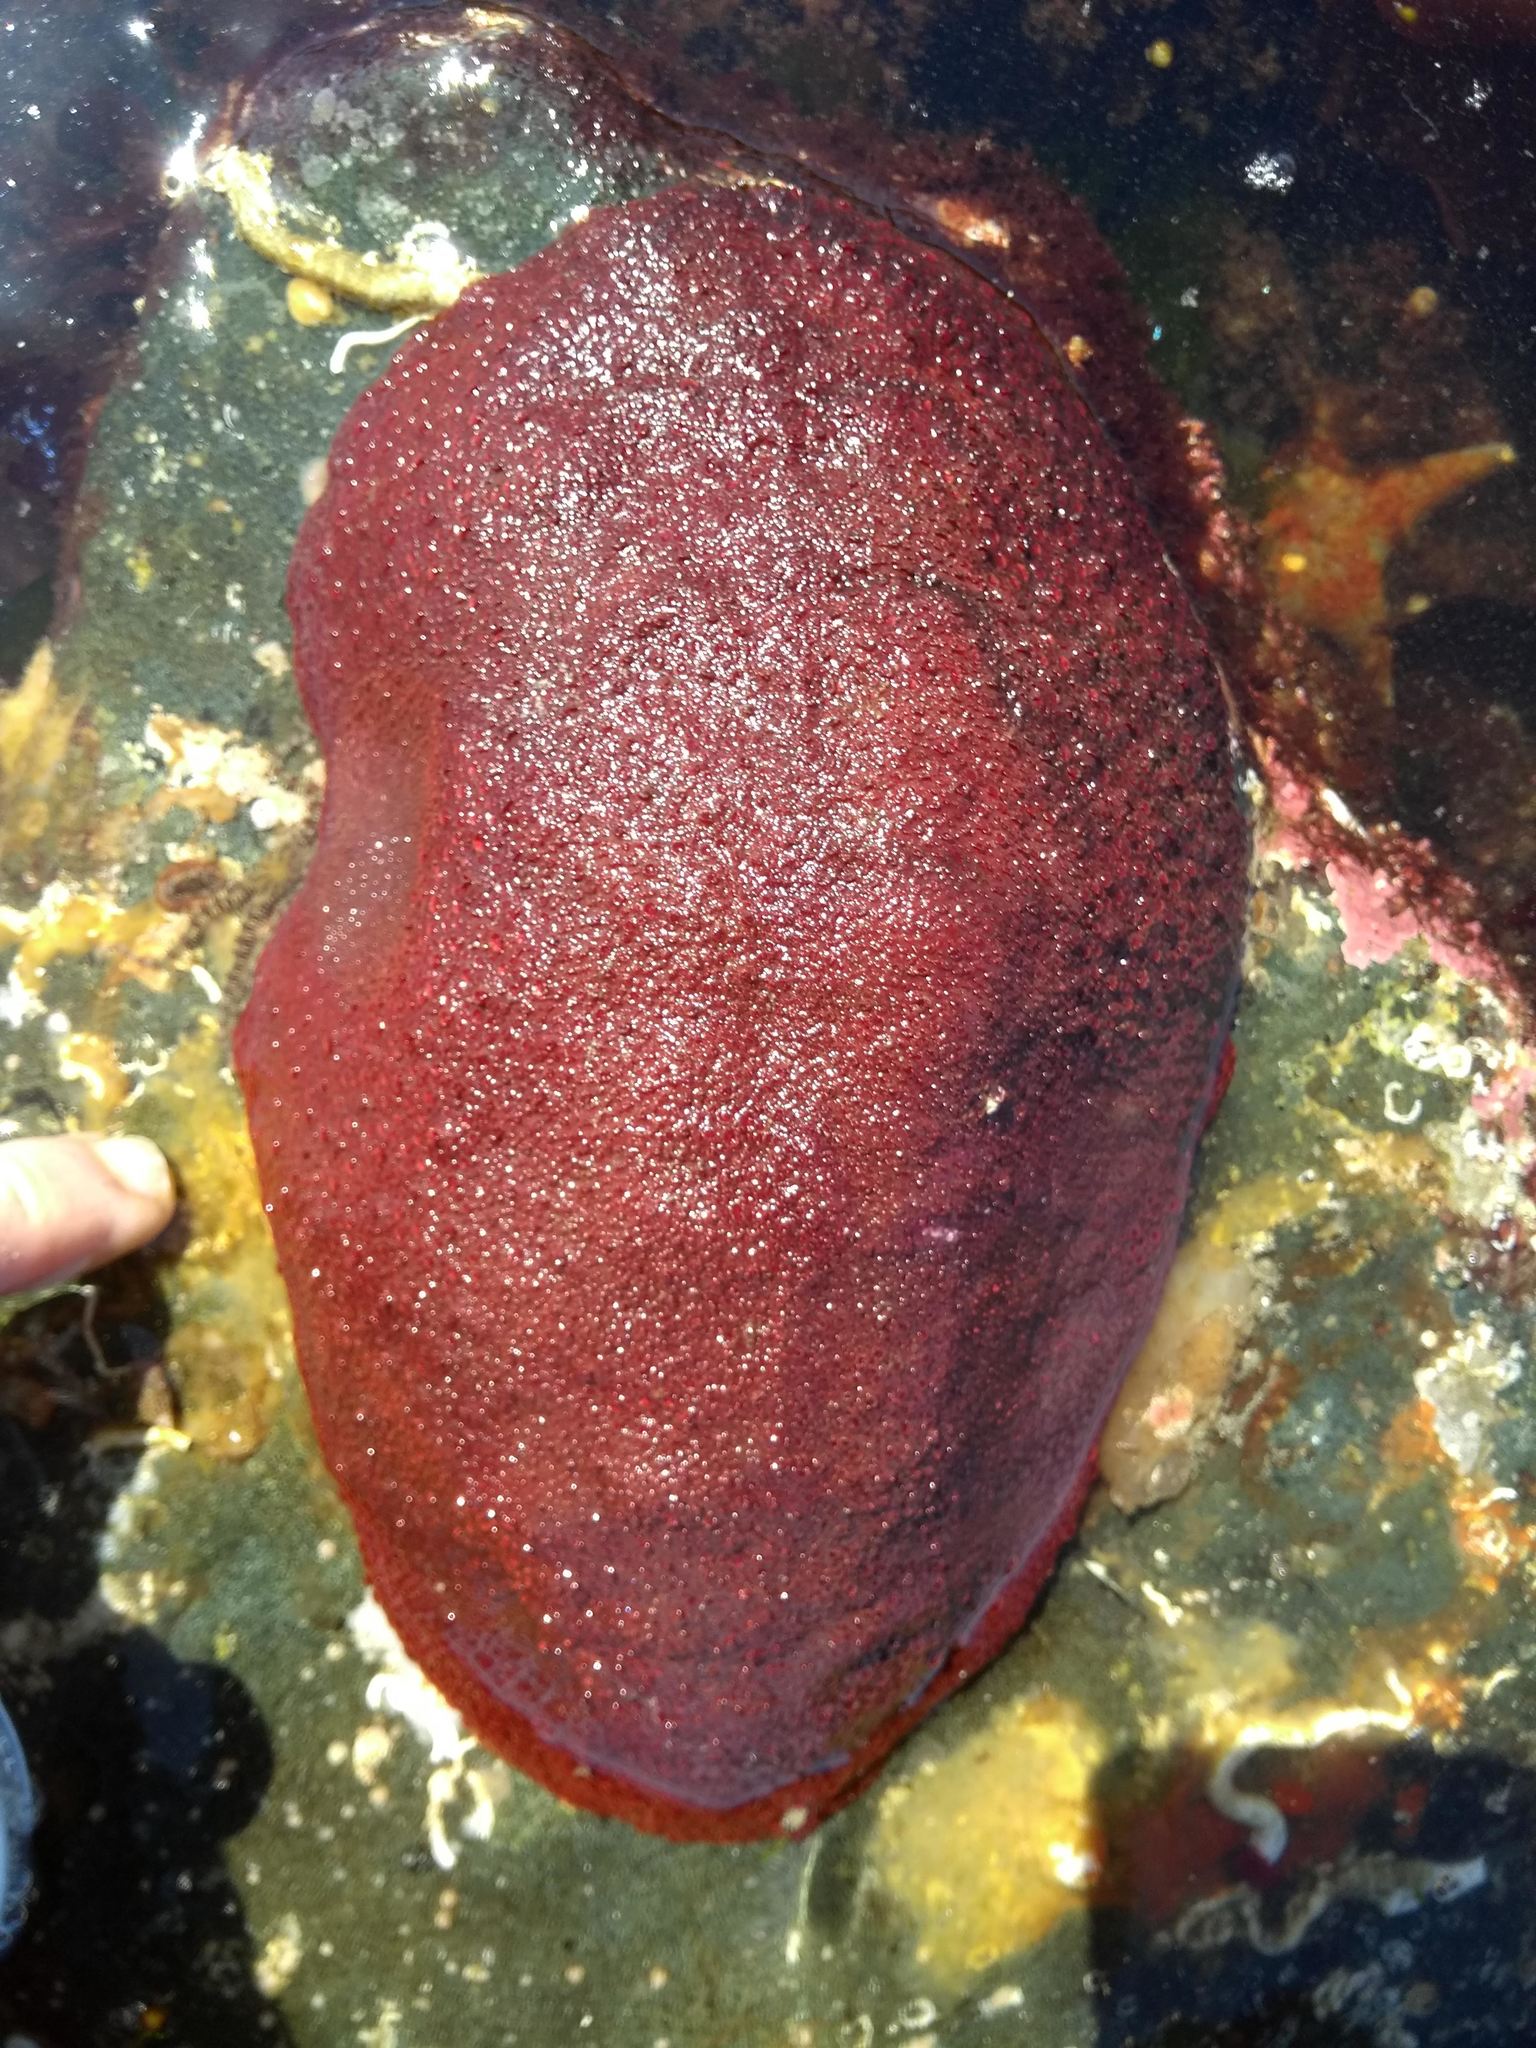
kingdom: Animalia
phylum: Mollusca
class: Polyplacophora
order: Chitonida
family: Acanthochitonidae
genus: Cryptochiton
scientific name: Cryptochiton stelleri
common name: Giant pacific chiton
